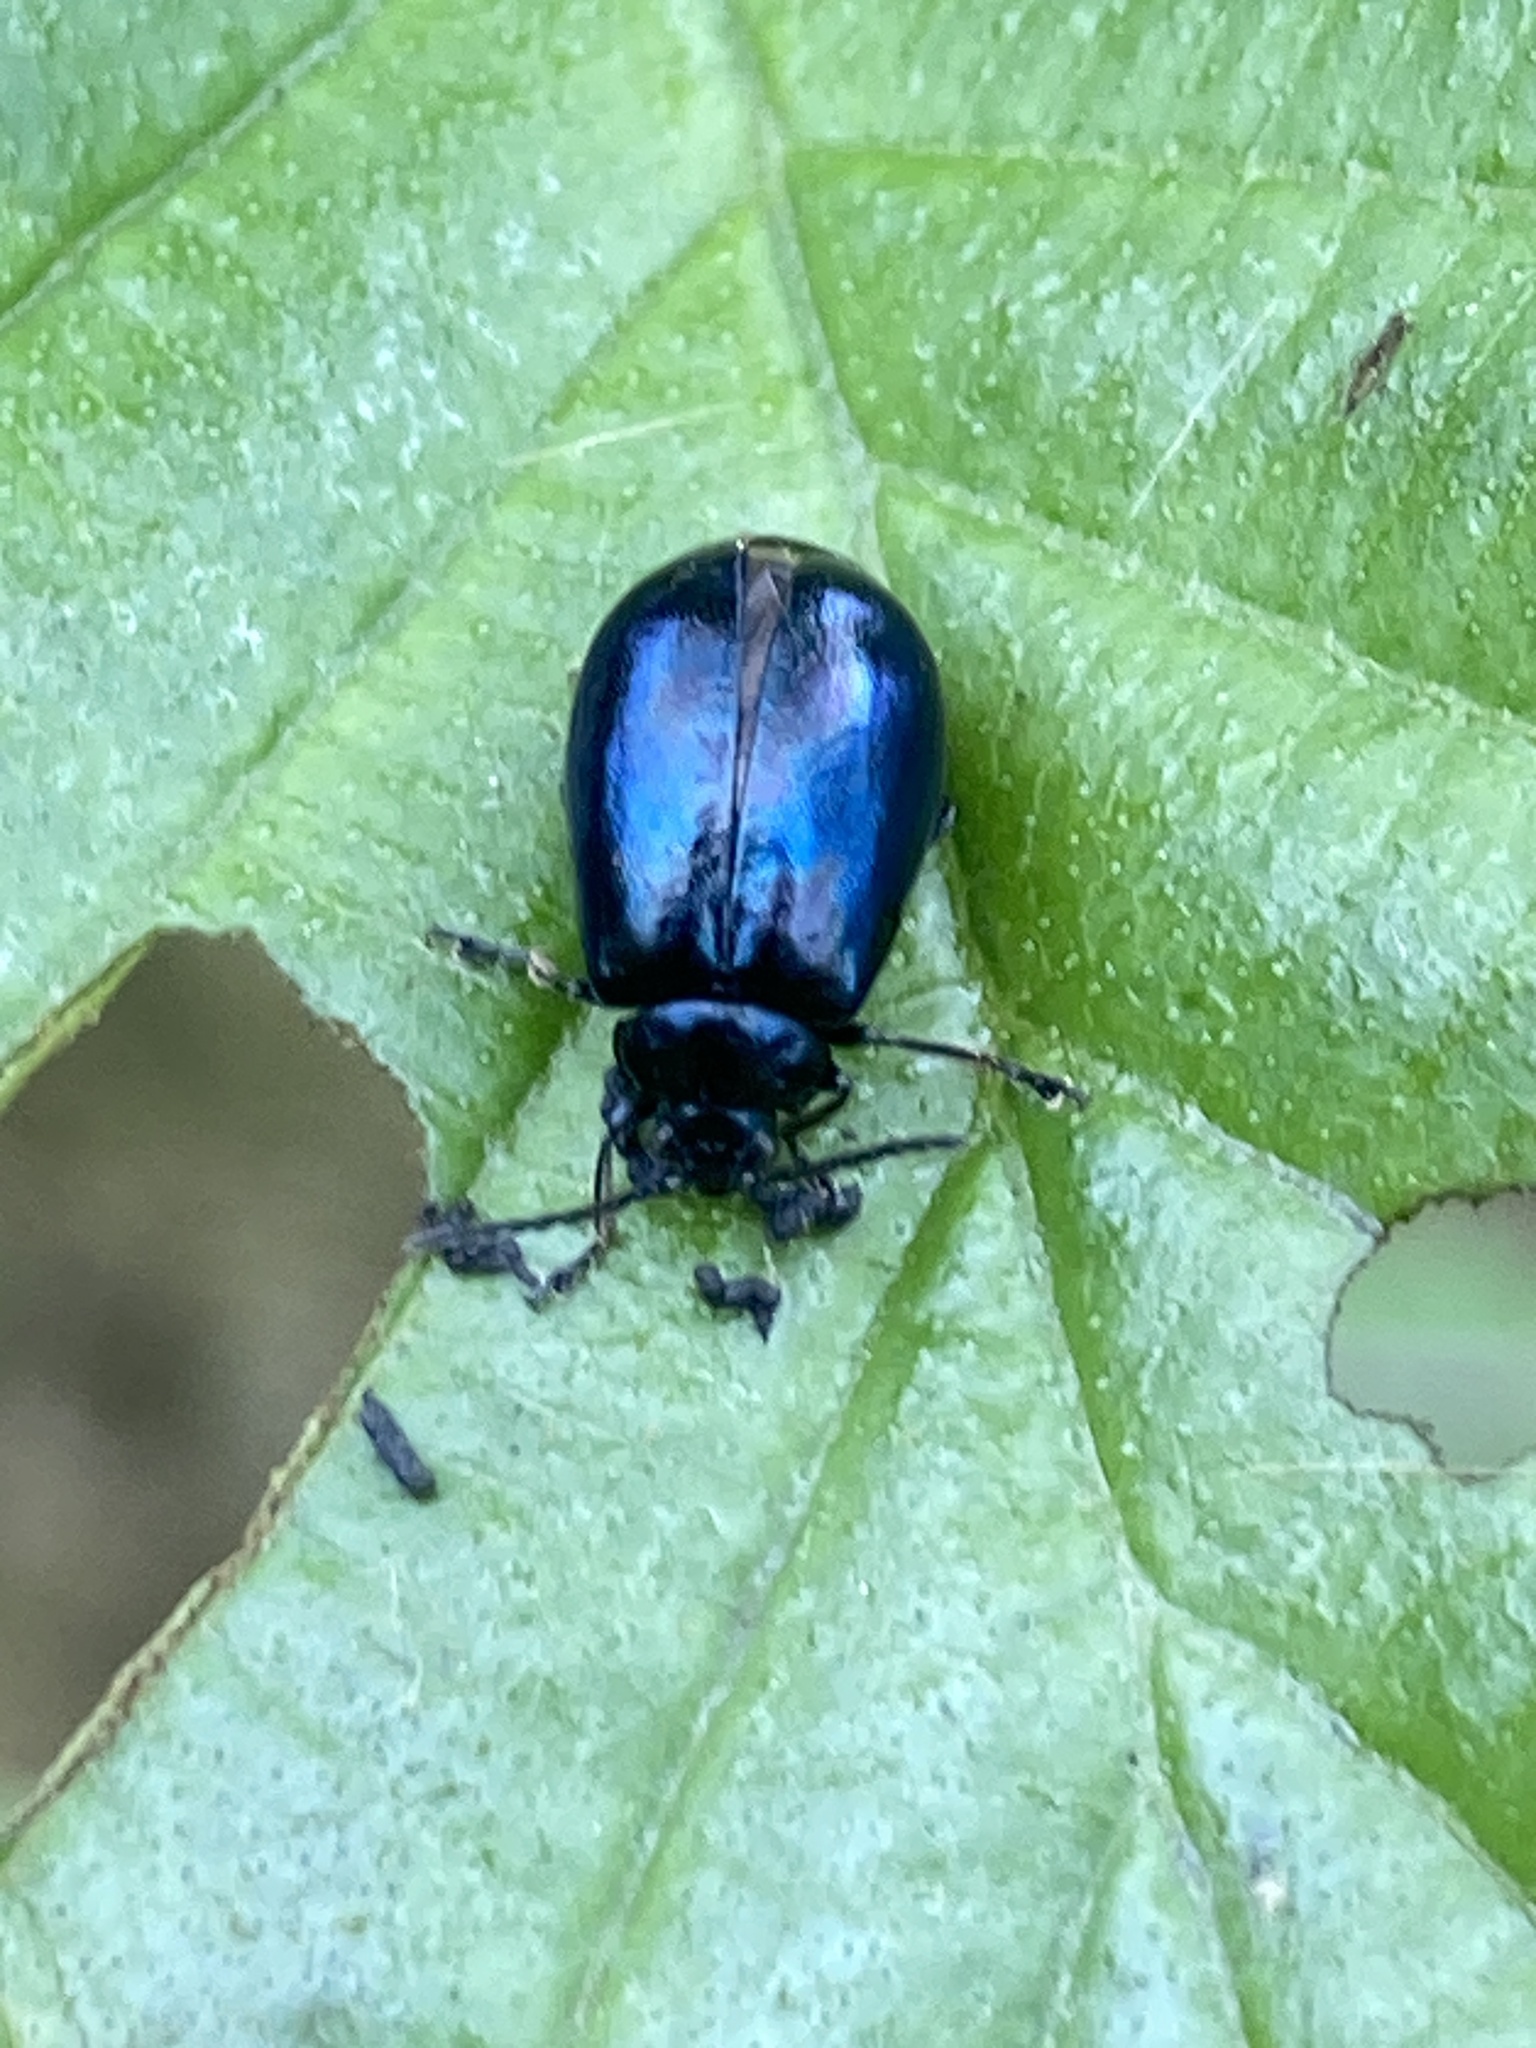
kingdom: Animalia
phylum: Arthropoda
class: Insecta
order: Coleoptera
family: Chrysomelidae
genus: Agelastica
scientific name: Agelastica alni
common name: Alder leaf beetle
